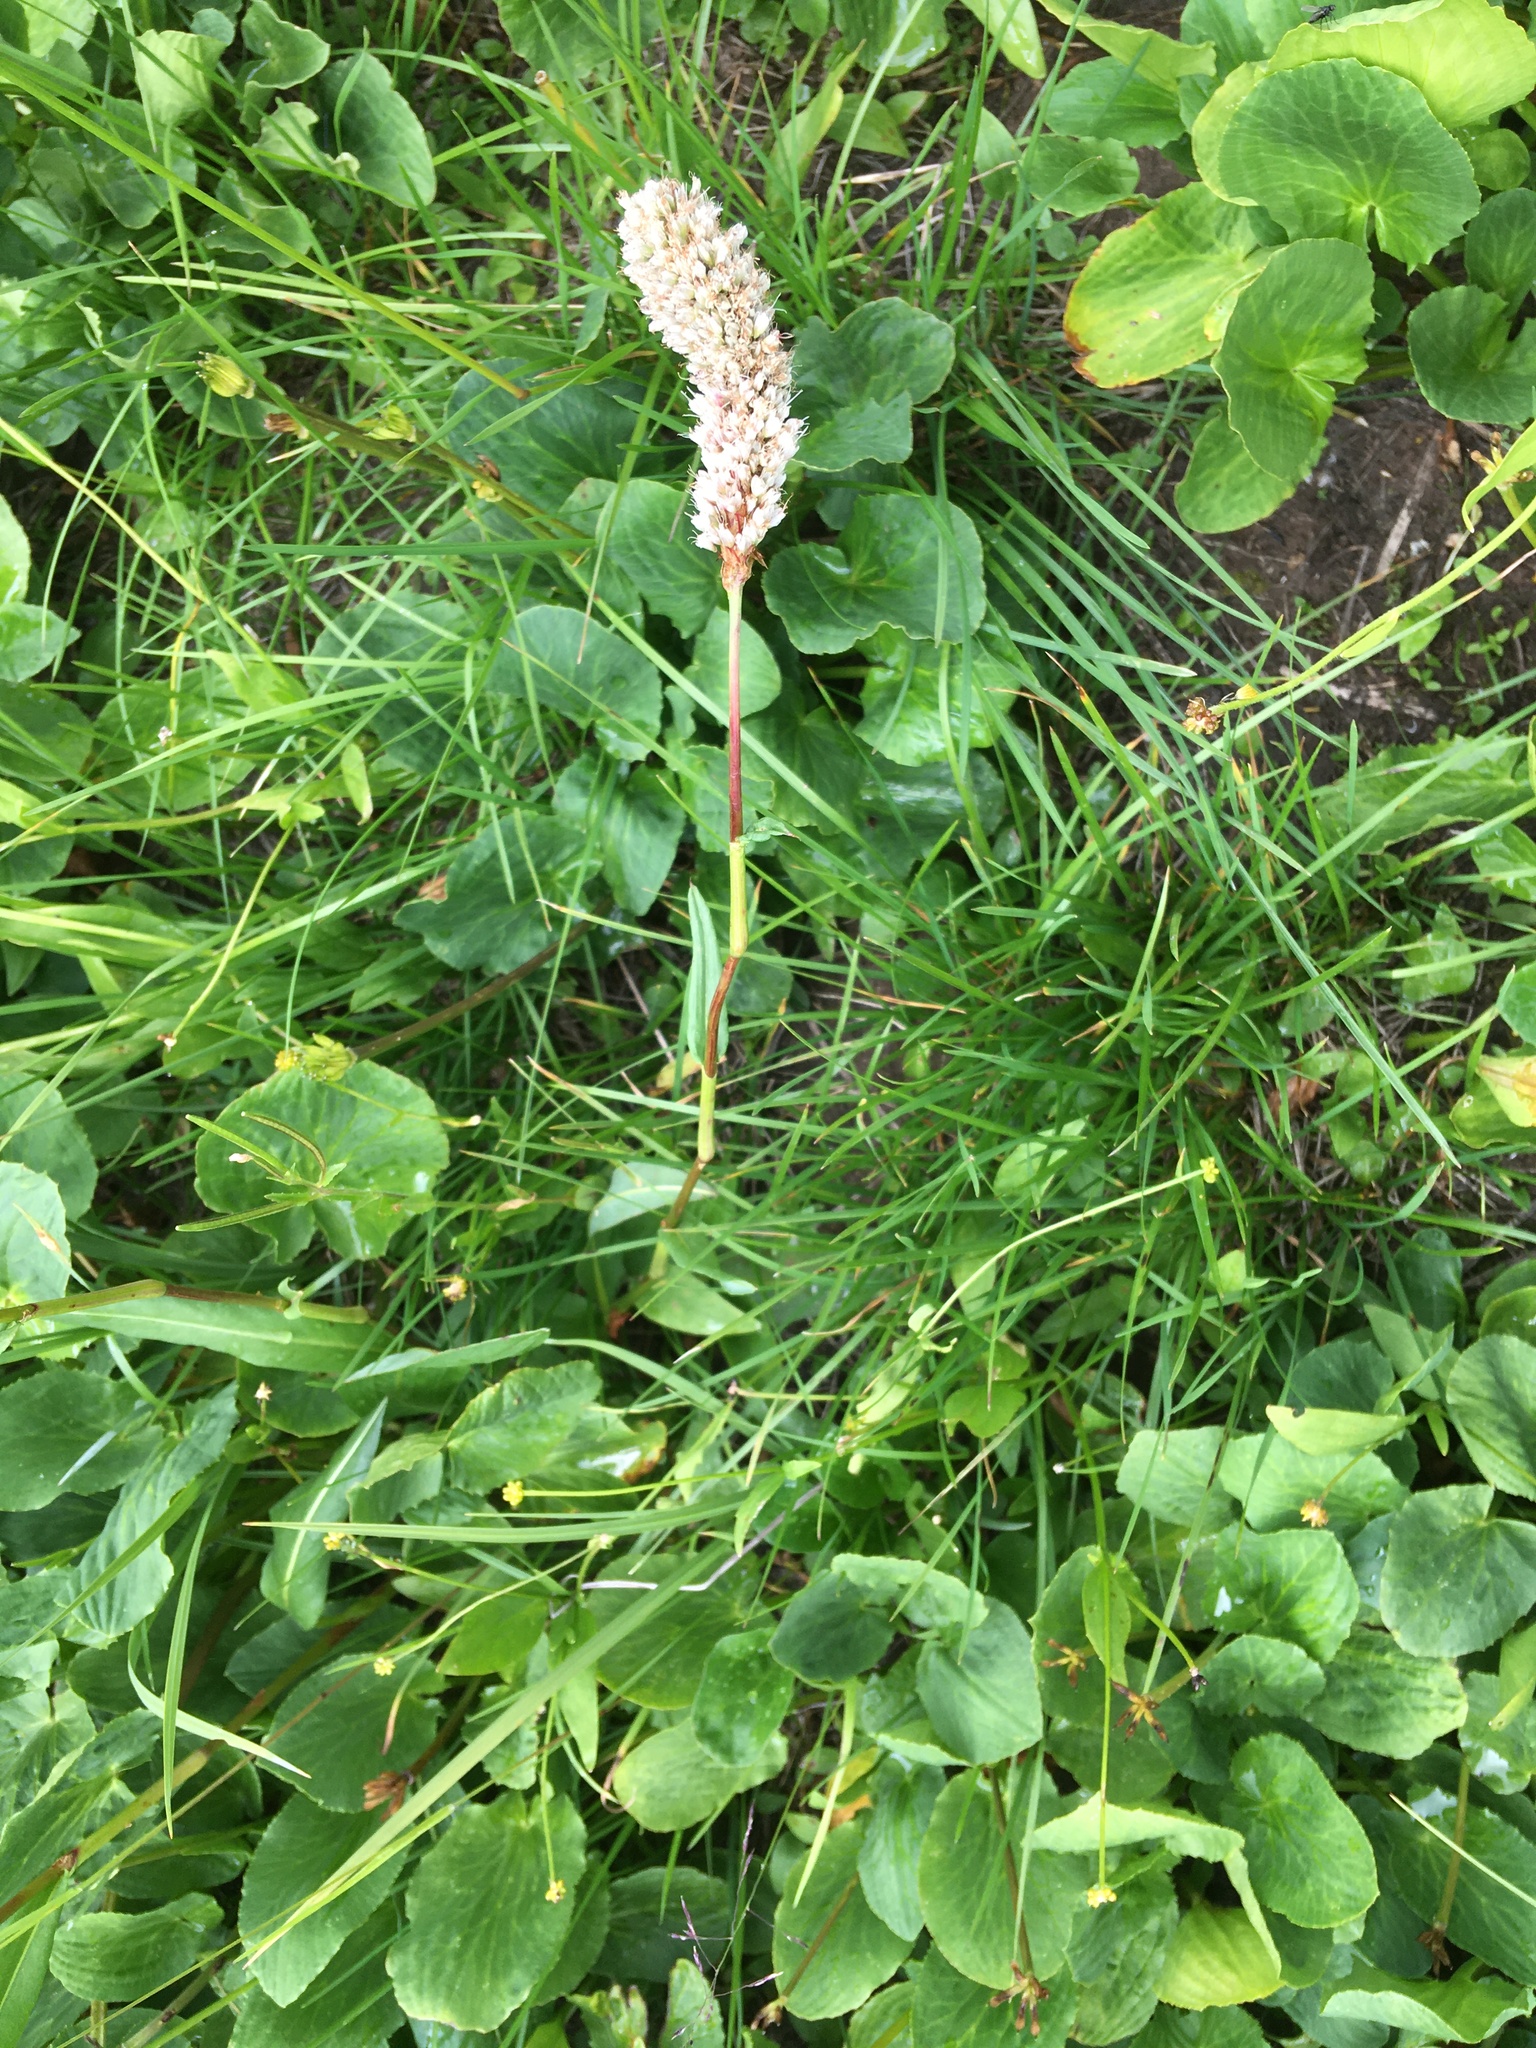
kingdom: Plantae
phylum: Tracheophyta
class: Magnoliopsida
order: Caryophyllales
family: Polygonaceae
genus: Bistorta
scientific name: Bistorta bistortoides
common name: American bistort
